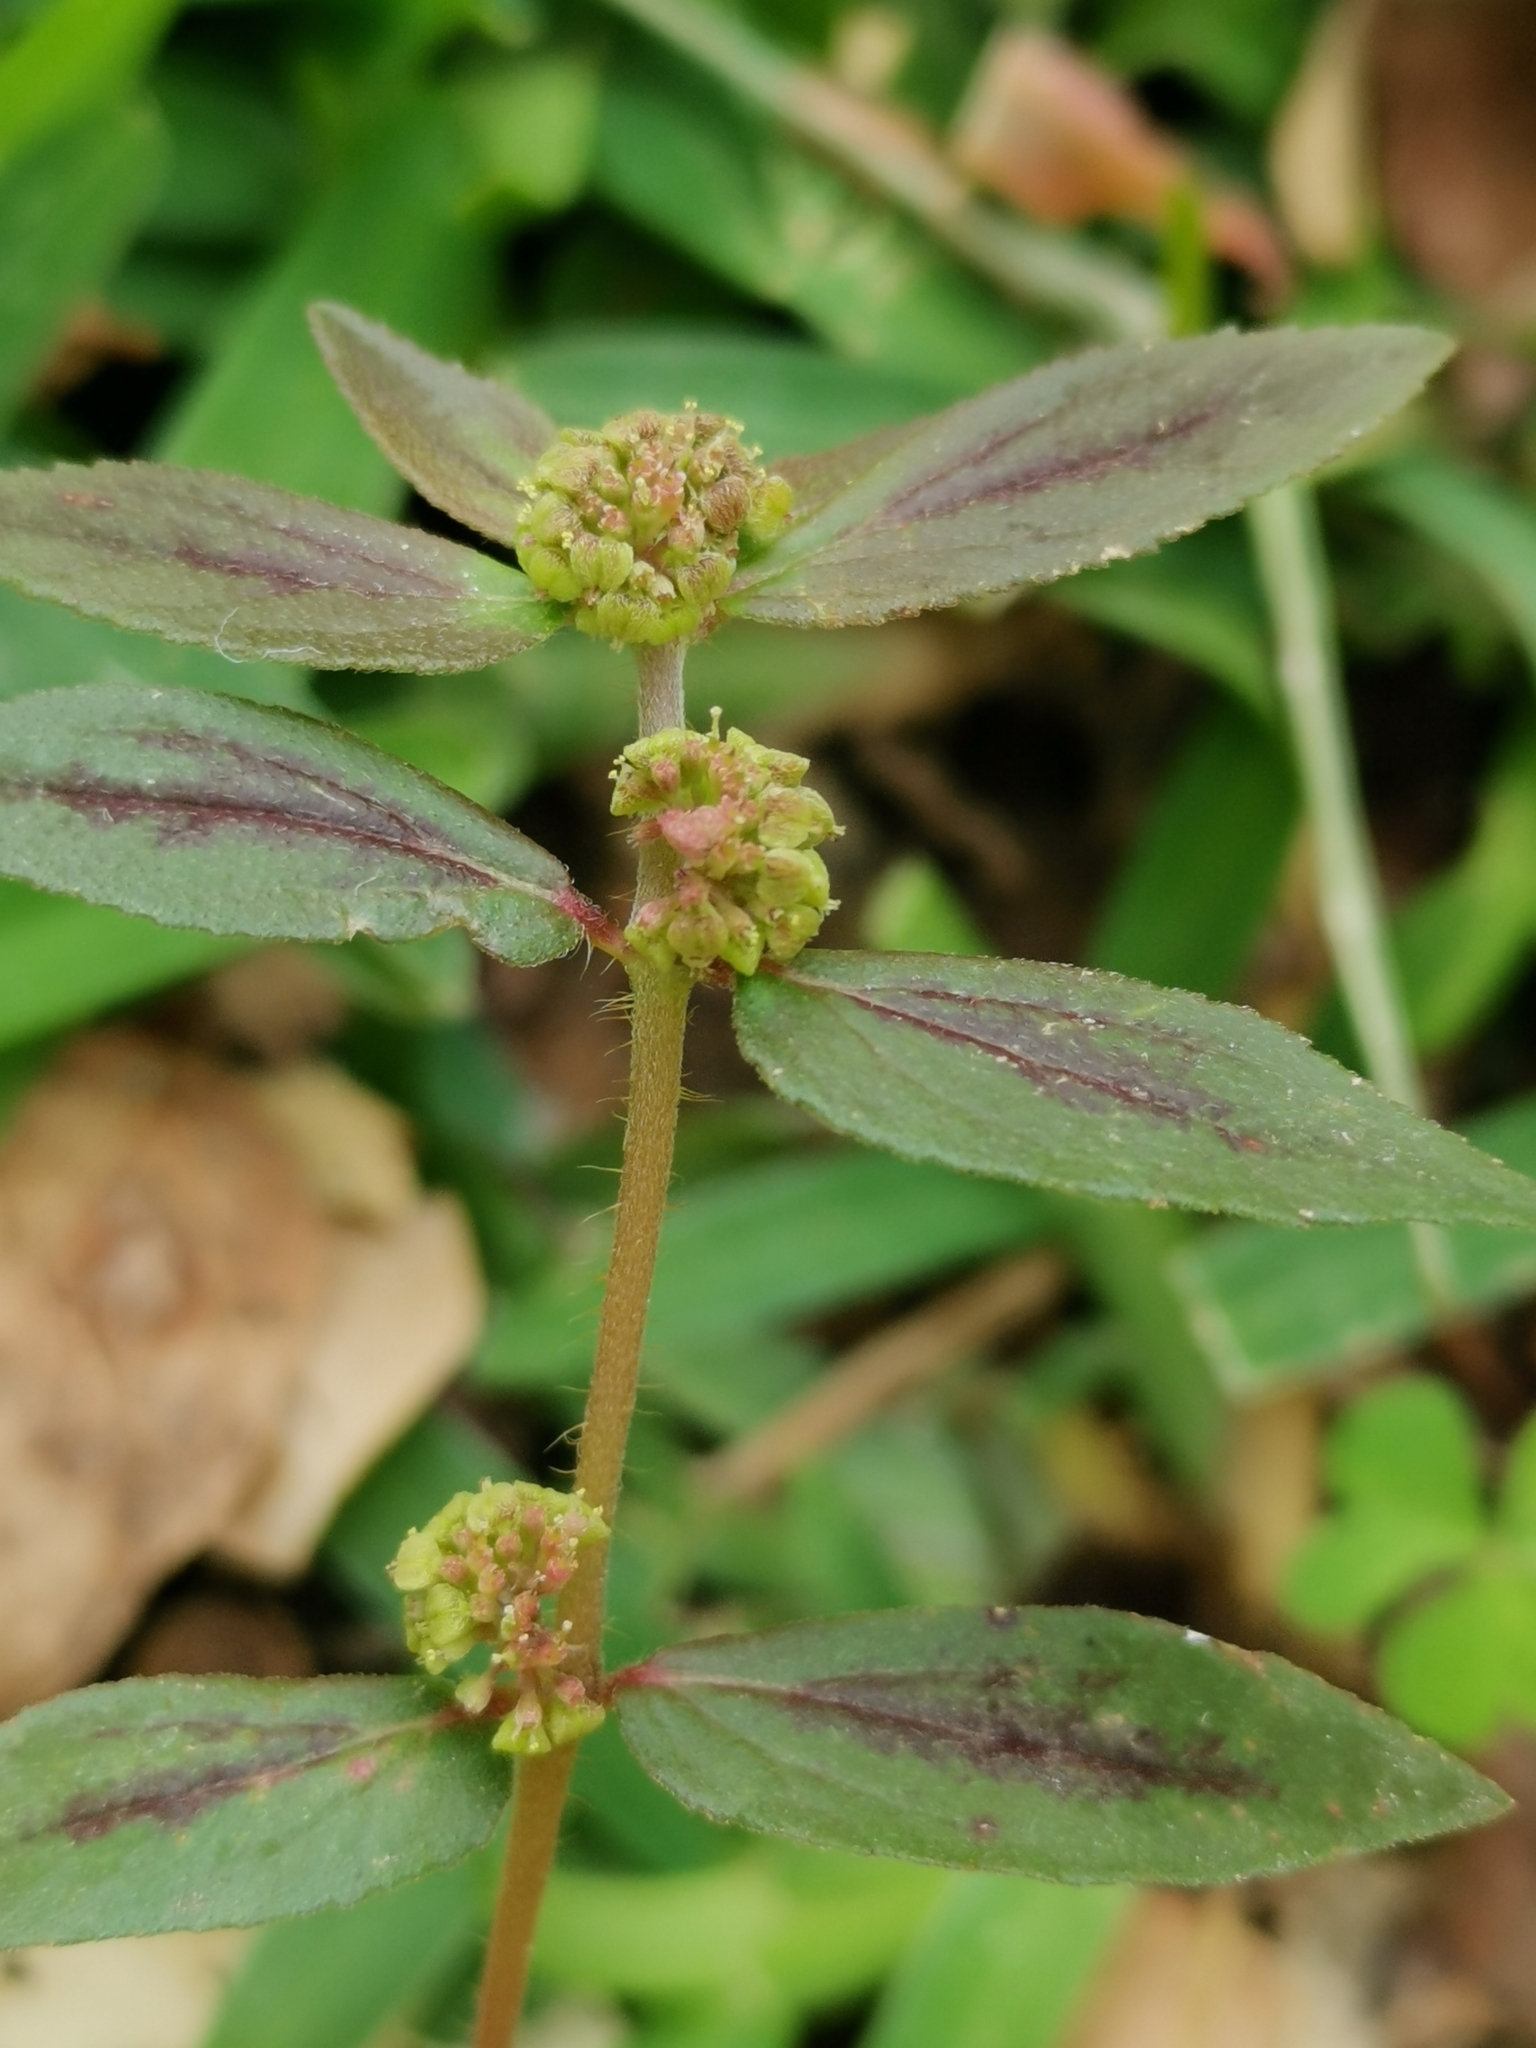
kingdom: Plantae
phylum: Tracheophyta
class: Magnoliopsida
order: Malpighiales
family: Euphorbiaceae
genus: Euphorbia
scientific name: Euphorbia hirta
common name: Pillpod sandmat
